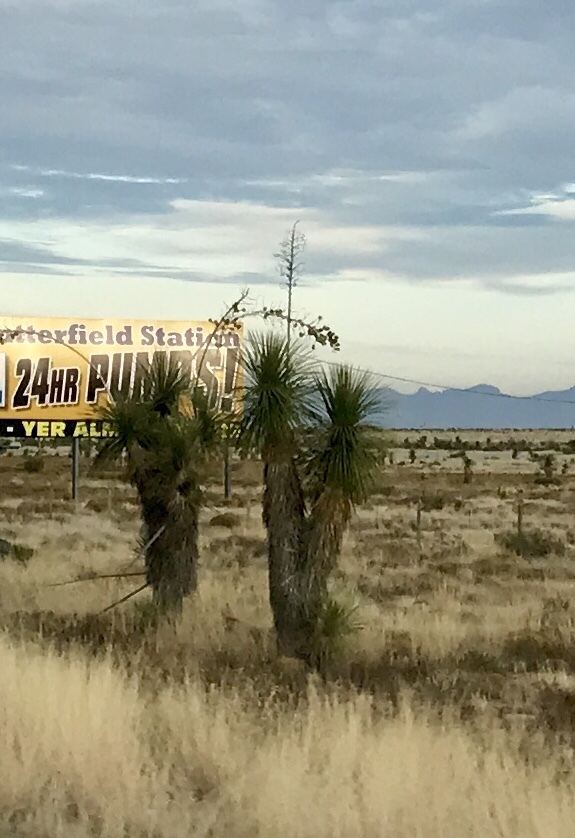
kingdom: Plantae
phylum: Tracheophyta
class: Liliopsida
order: Asparagales
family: Asparagaceae
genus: Yucca
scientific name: Yucca elata
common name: Palmella
